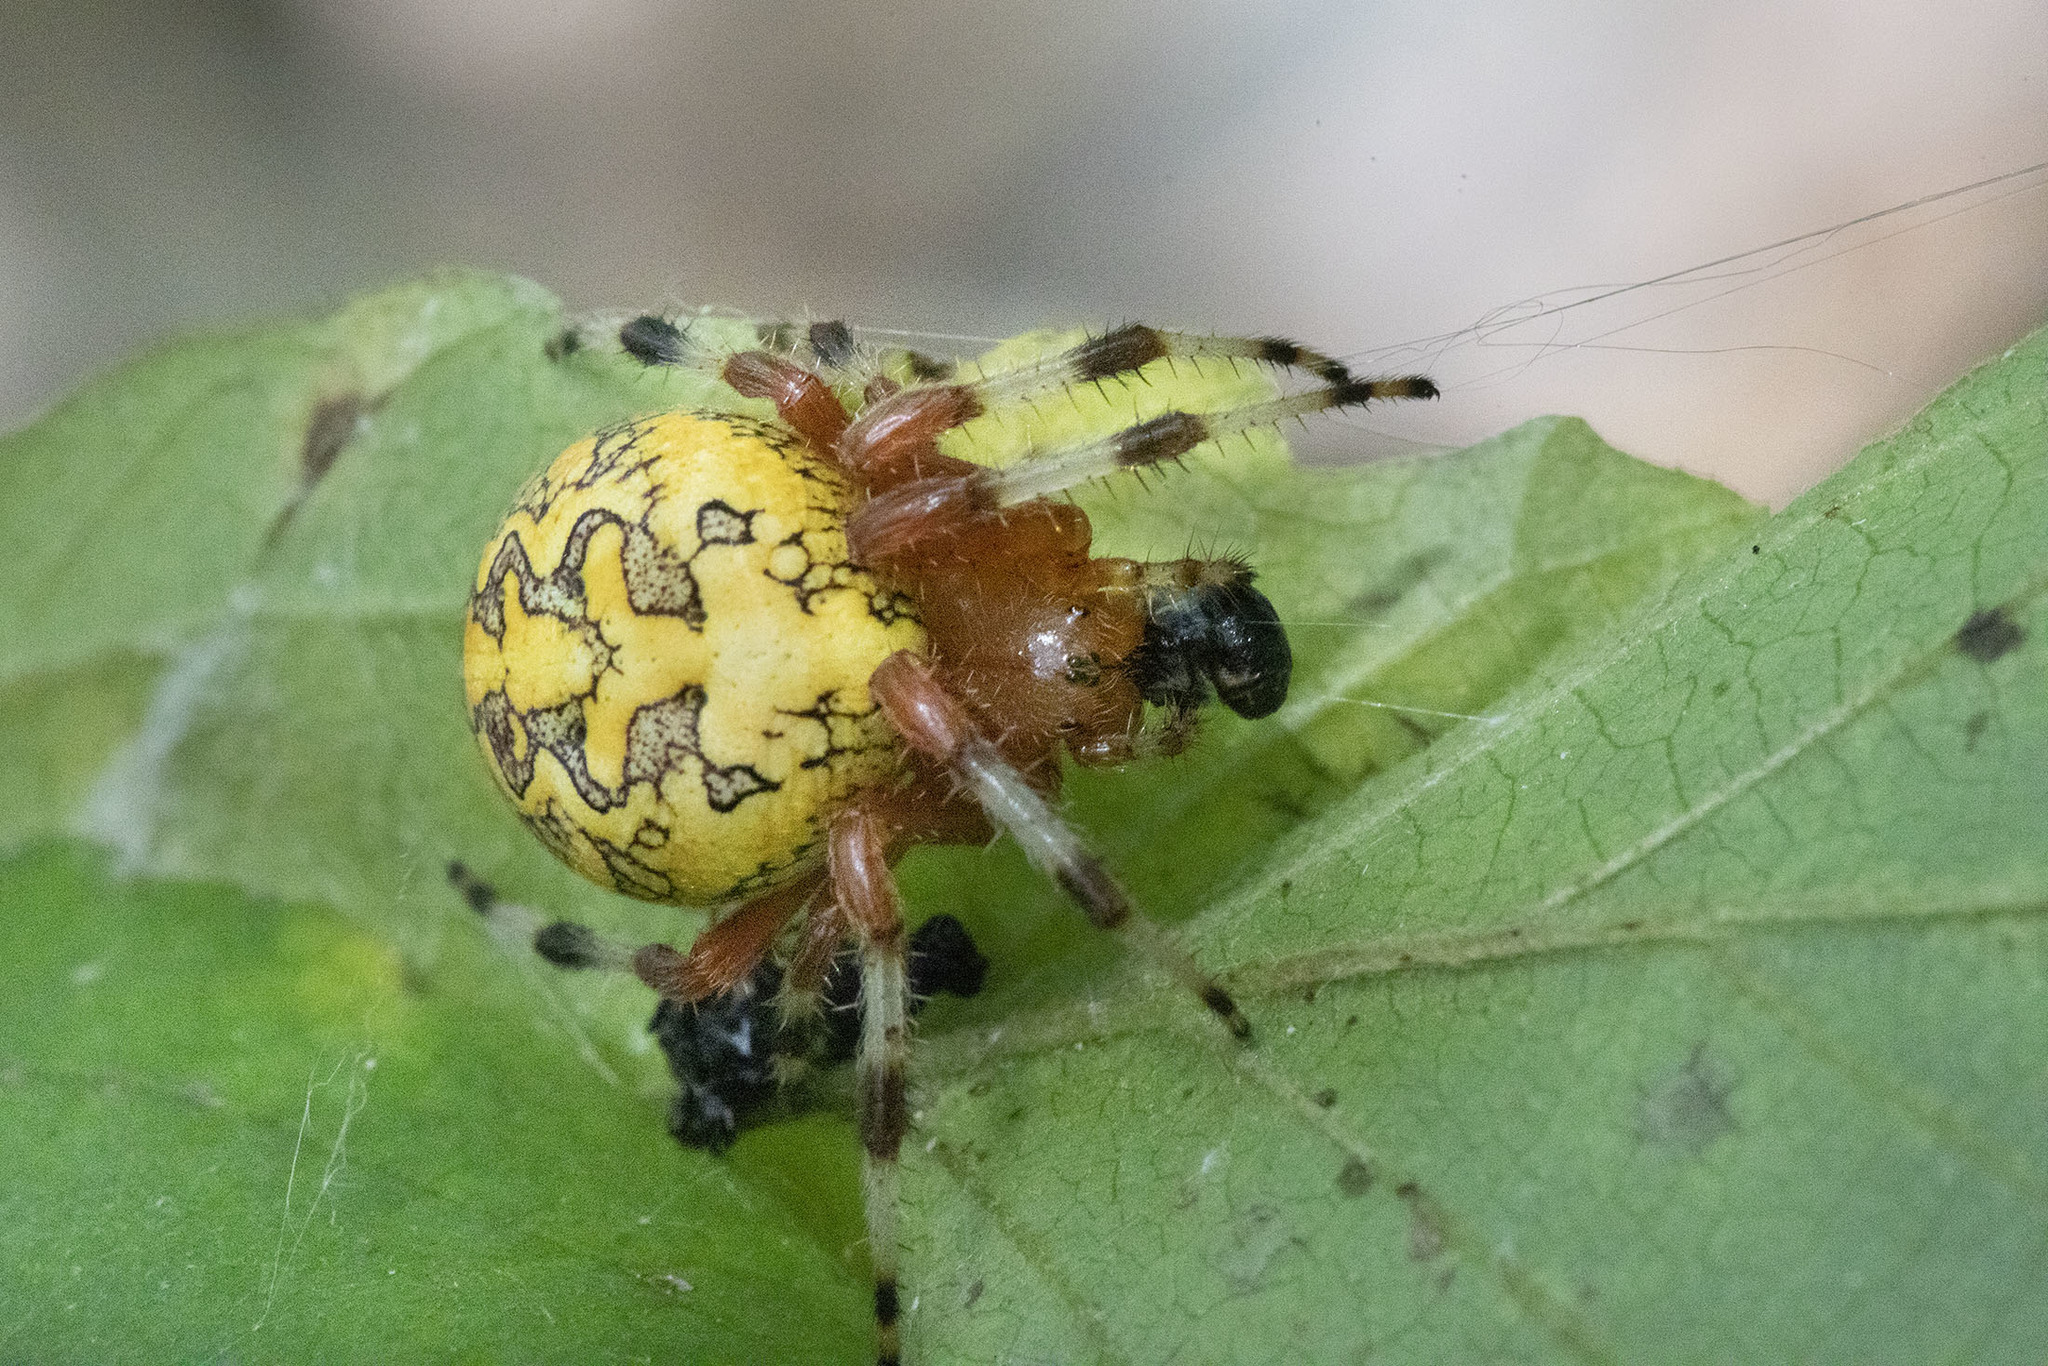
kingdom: Animalia
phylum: Arthropoda
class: Arachnida
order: Araneae
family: Araneidae
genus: Araneus
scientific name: Araneus marmoreus
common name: Marbled orbweaver
